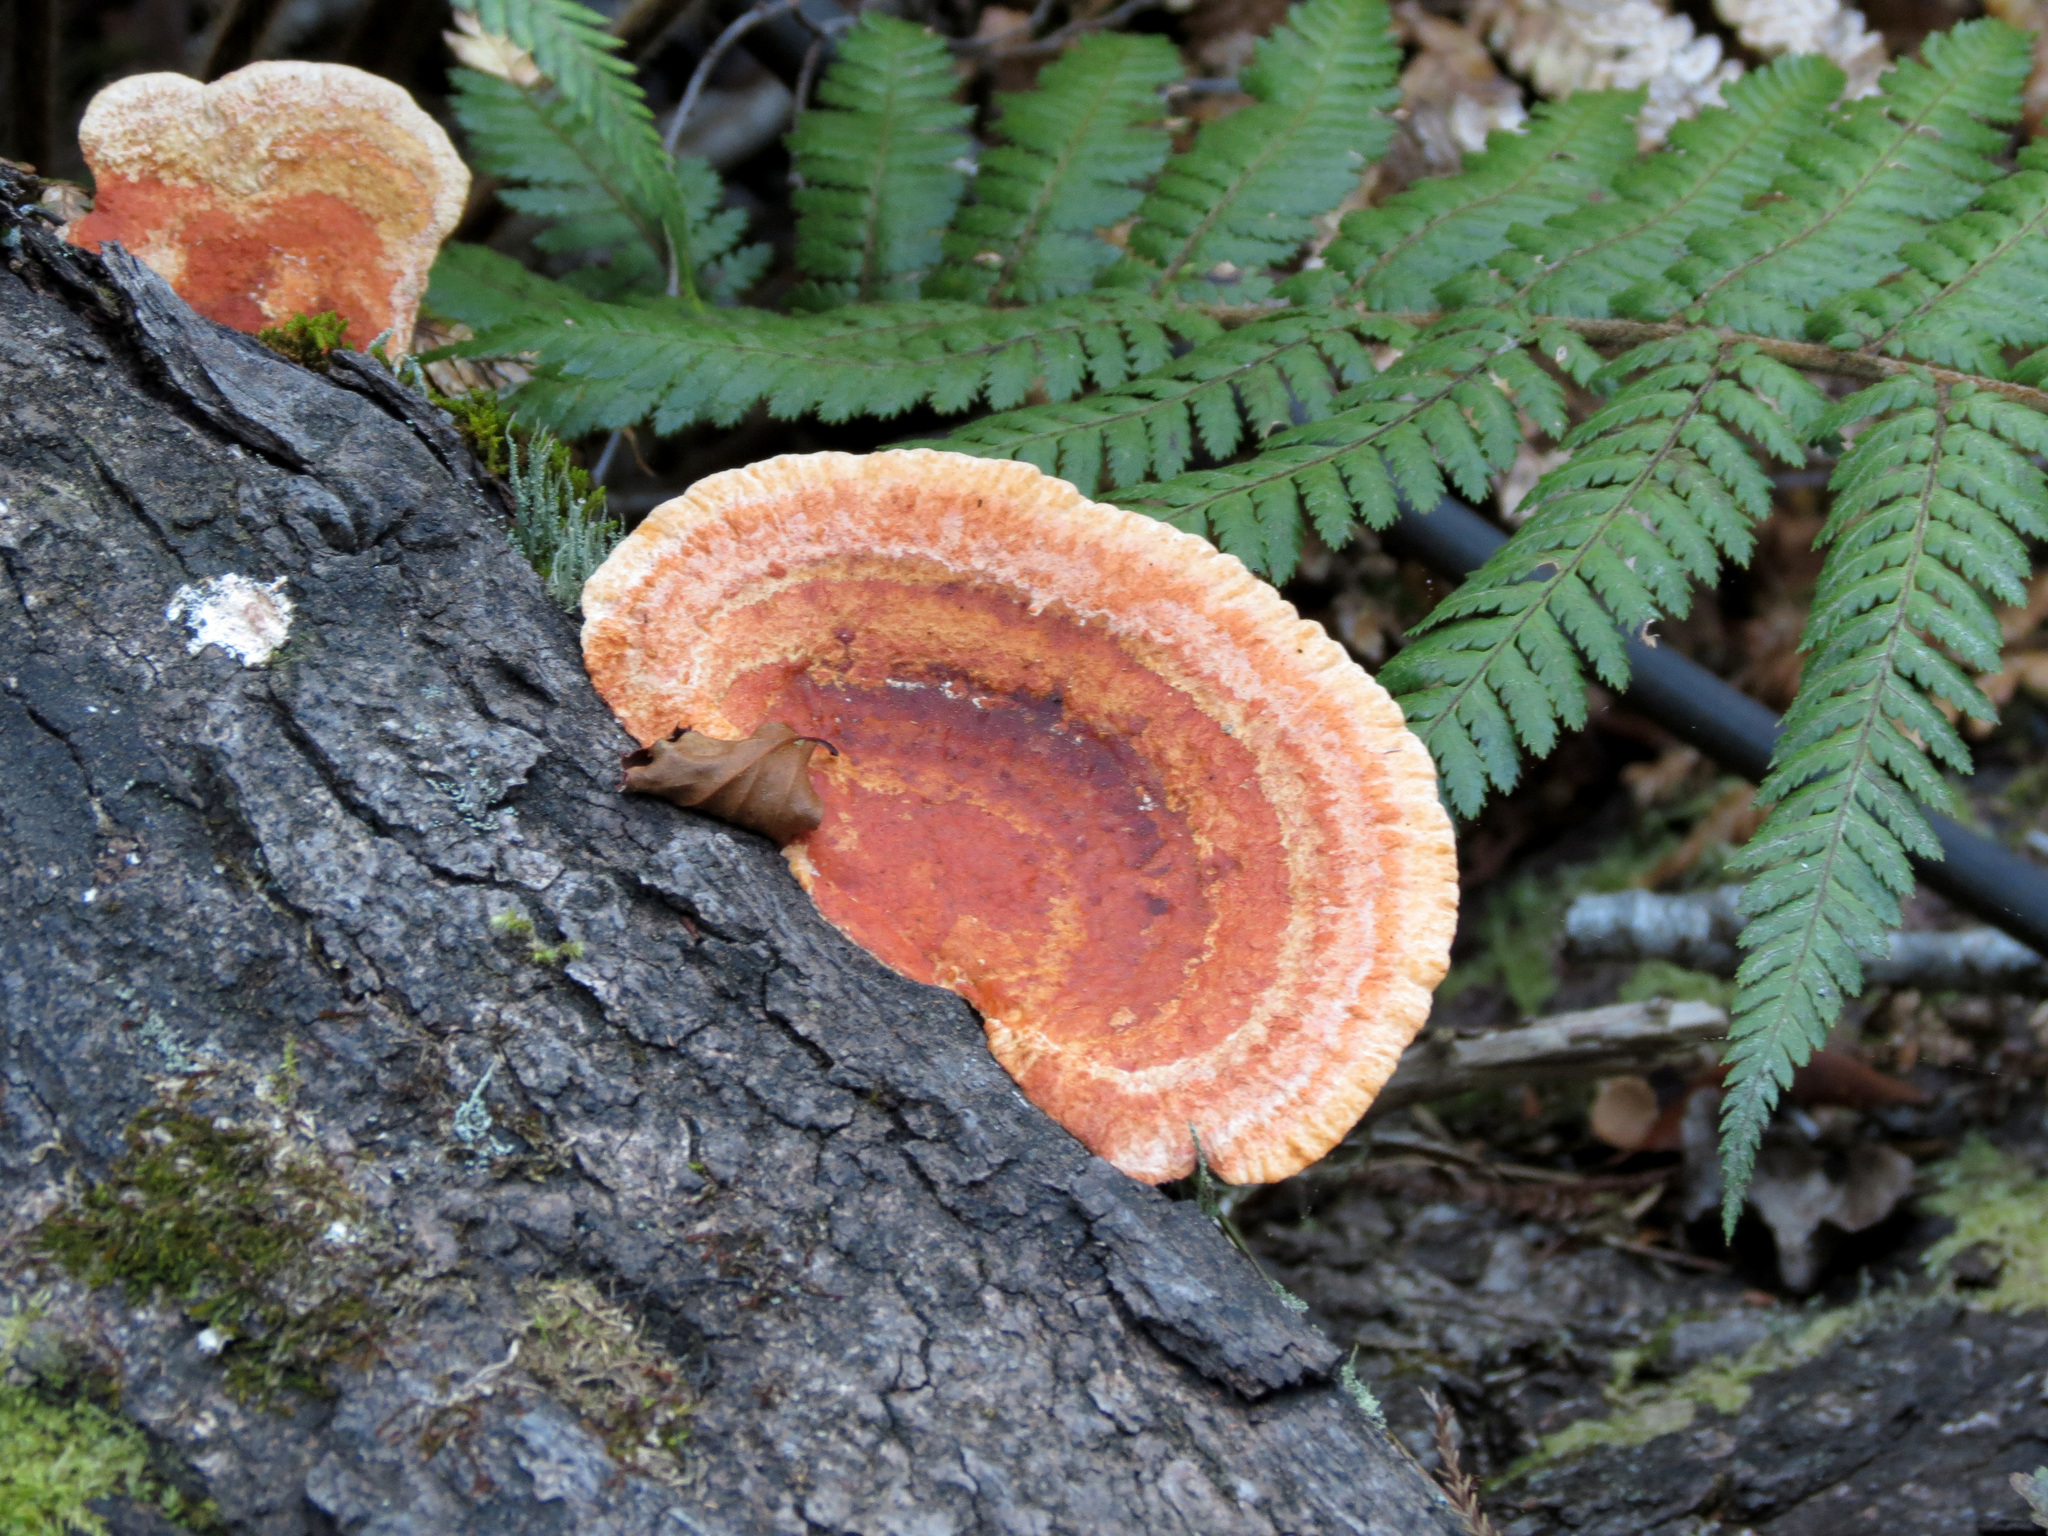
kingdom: Fungi
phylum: Basidiomycota
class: Agaricomycetes
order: Polyporales
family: Polyporaceae
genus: Trametes
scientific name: Trametes coccinea
